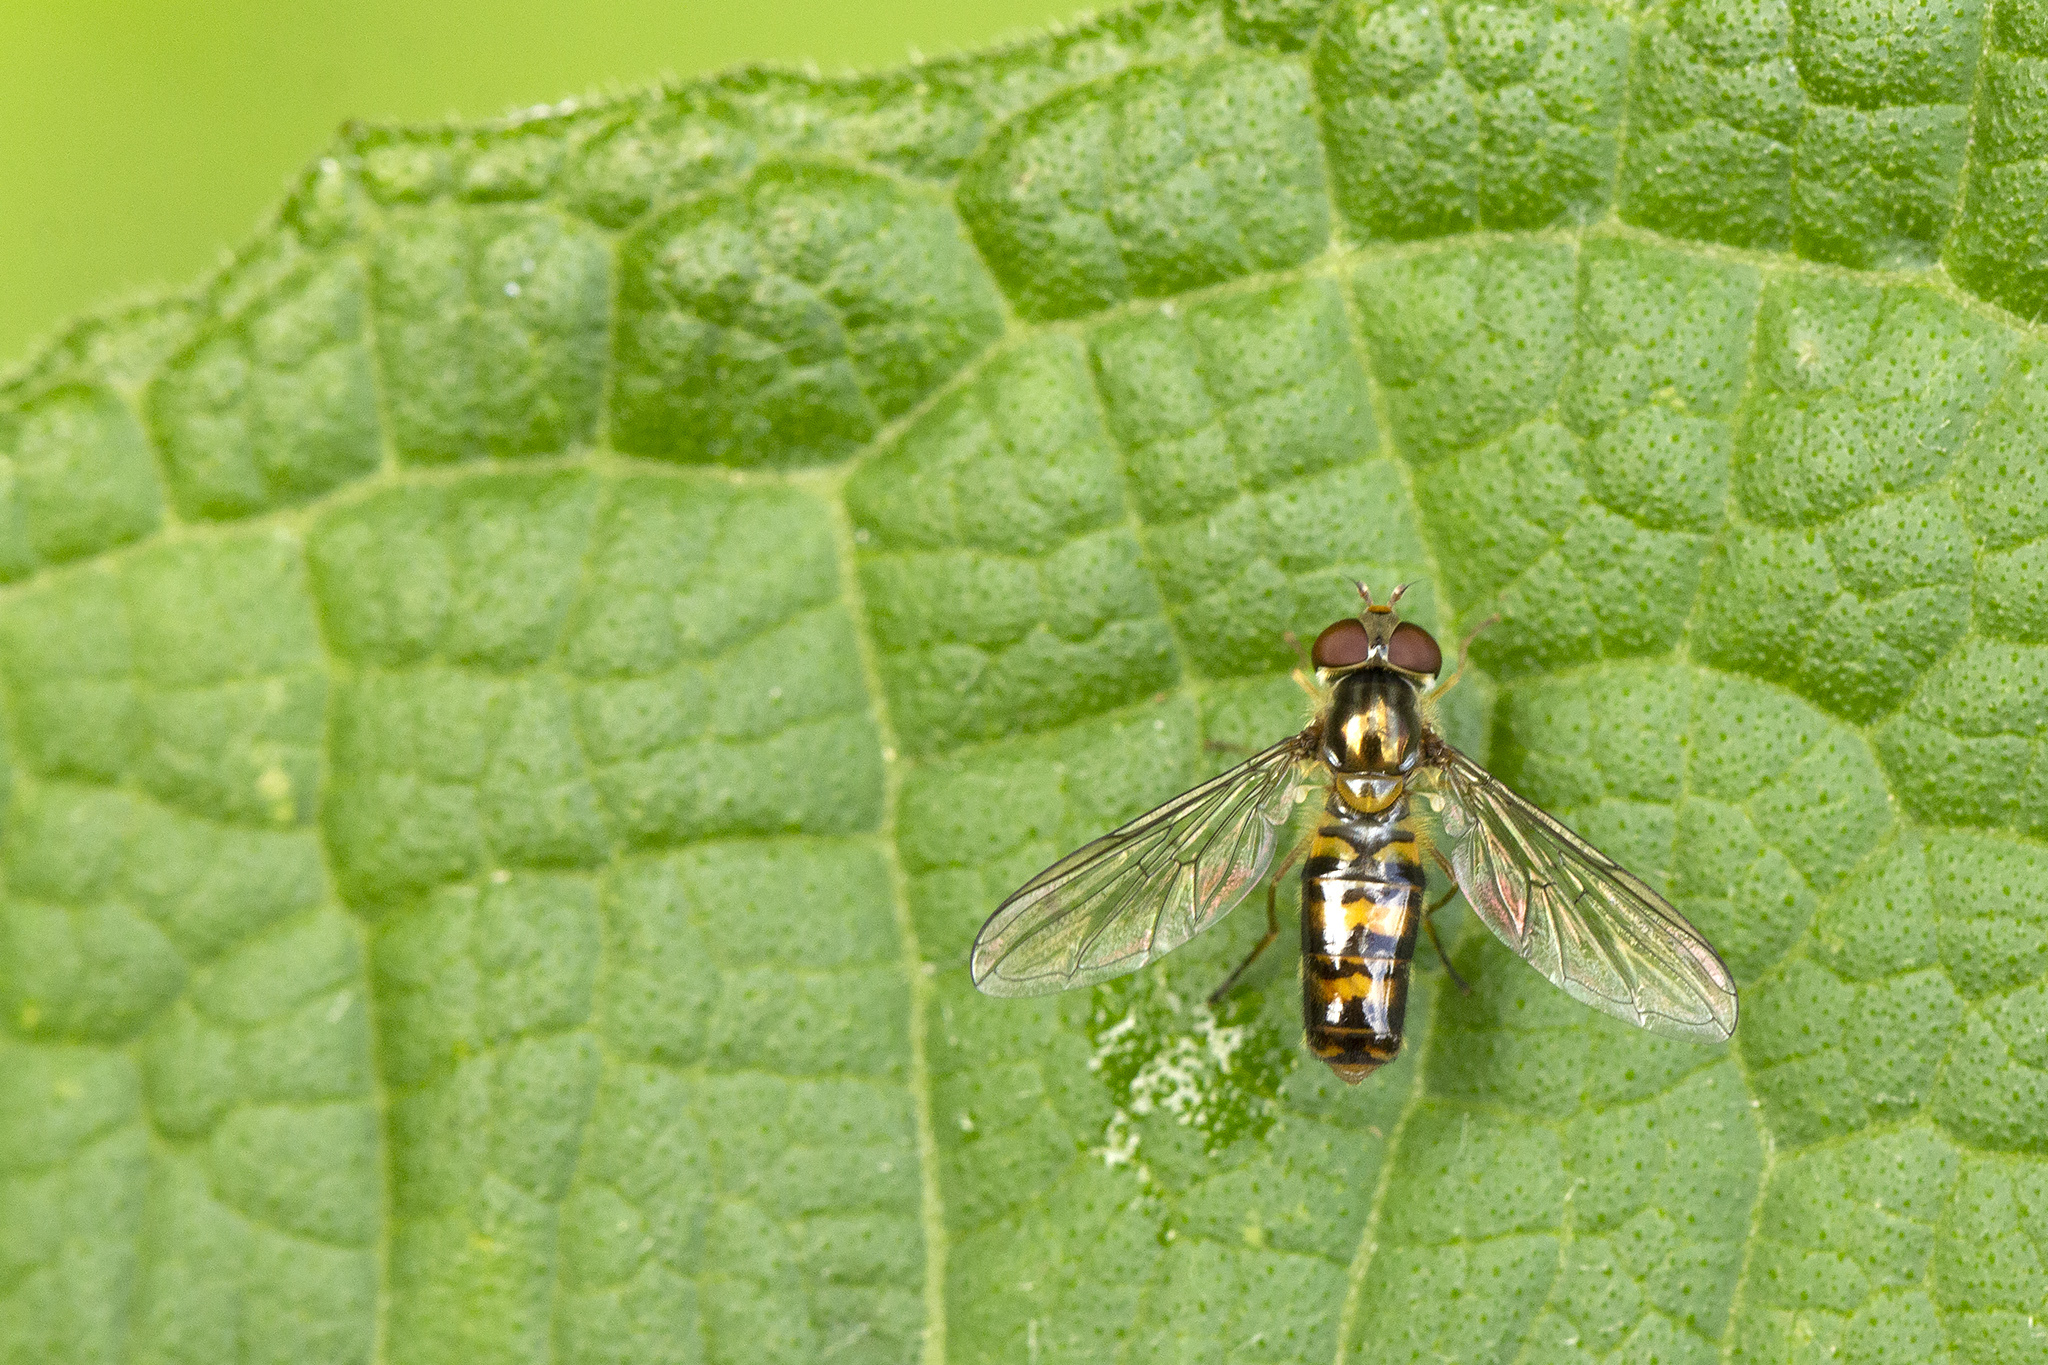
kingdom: Animalia
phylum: Arthropoda
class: Insecta
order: Diptera
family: Syrphidae
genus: Episyrphus
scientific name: Episyrphus balteatus
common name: Marmalade hoverfly
